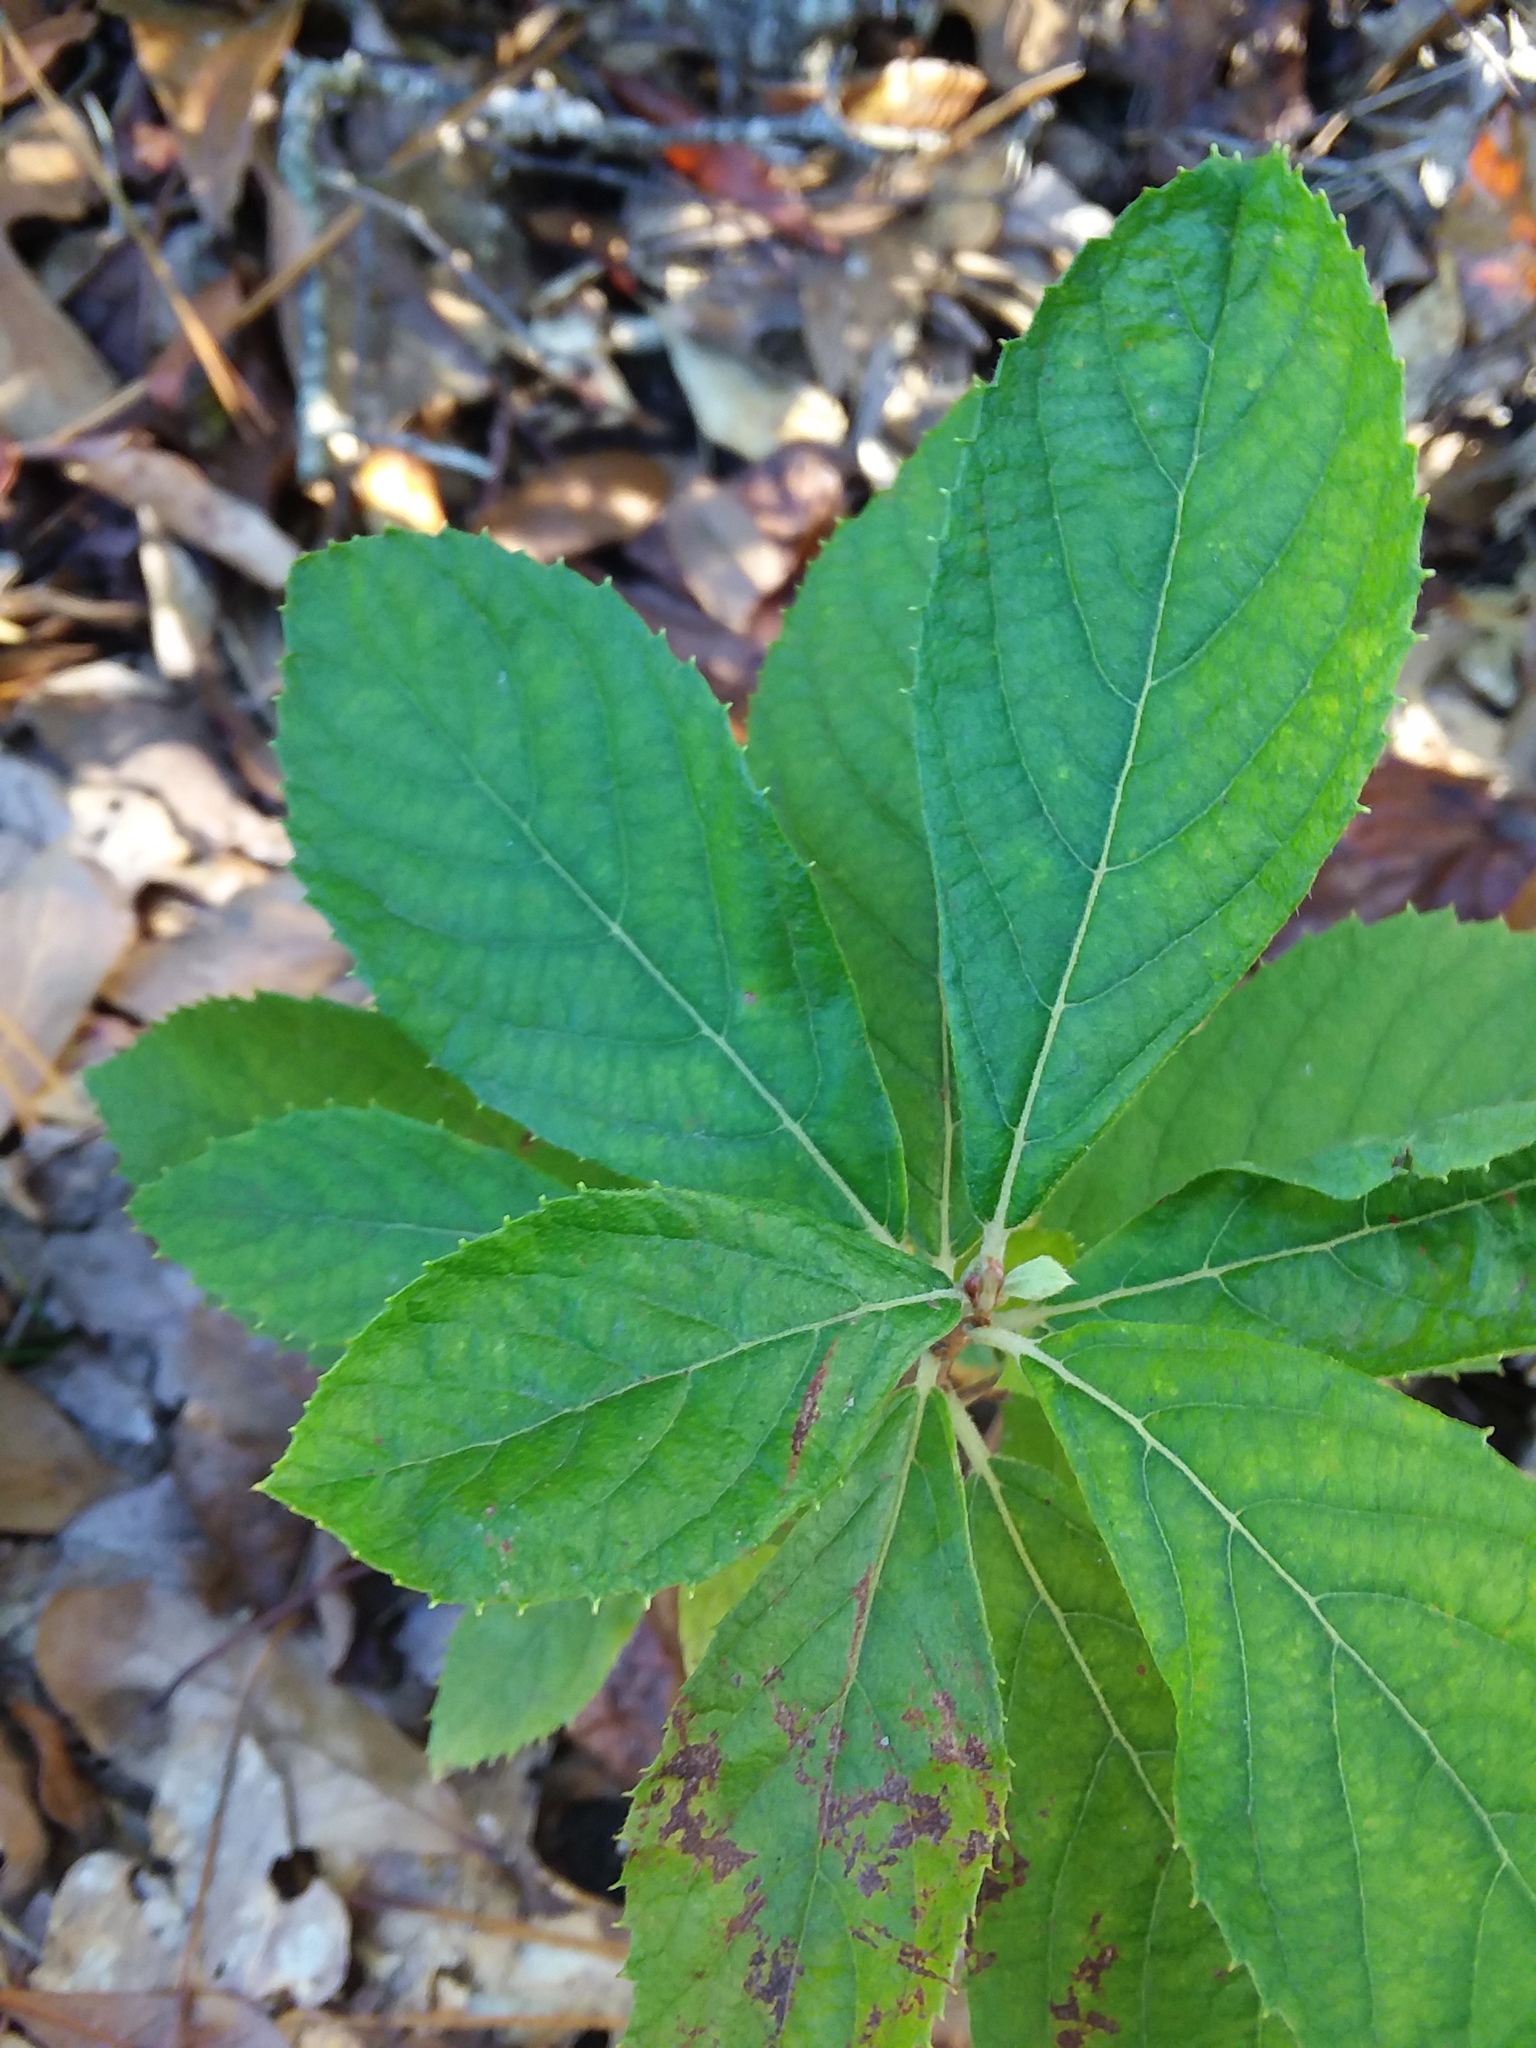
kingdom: Plantae
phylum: Tracheophyta
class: Magnoliopsida
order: Ericales
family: Clethraceae
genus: Clethra
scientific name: Clethra alnifolia
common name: Sweet pepperbush
